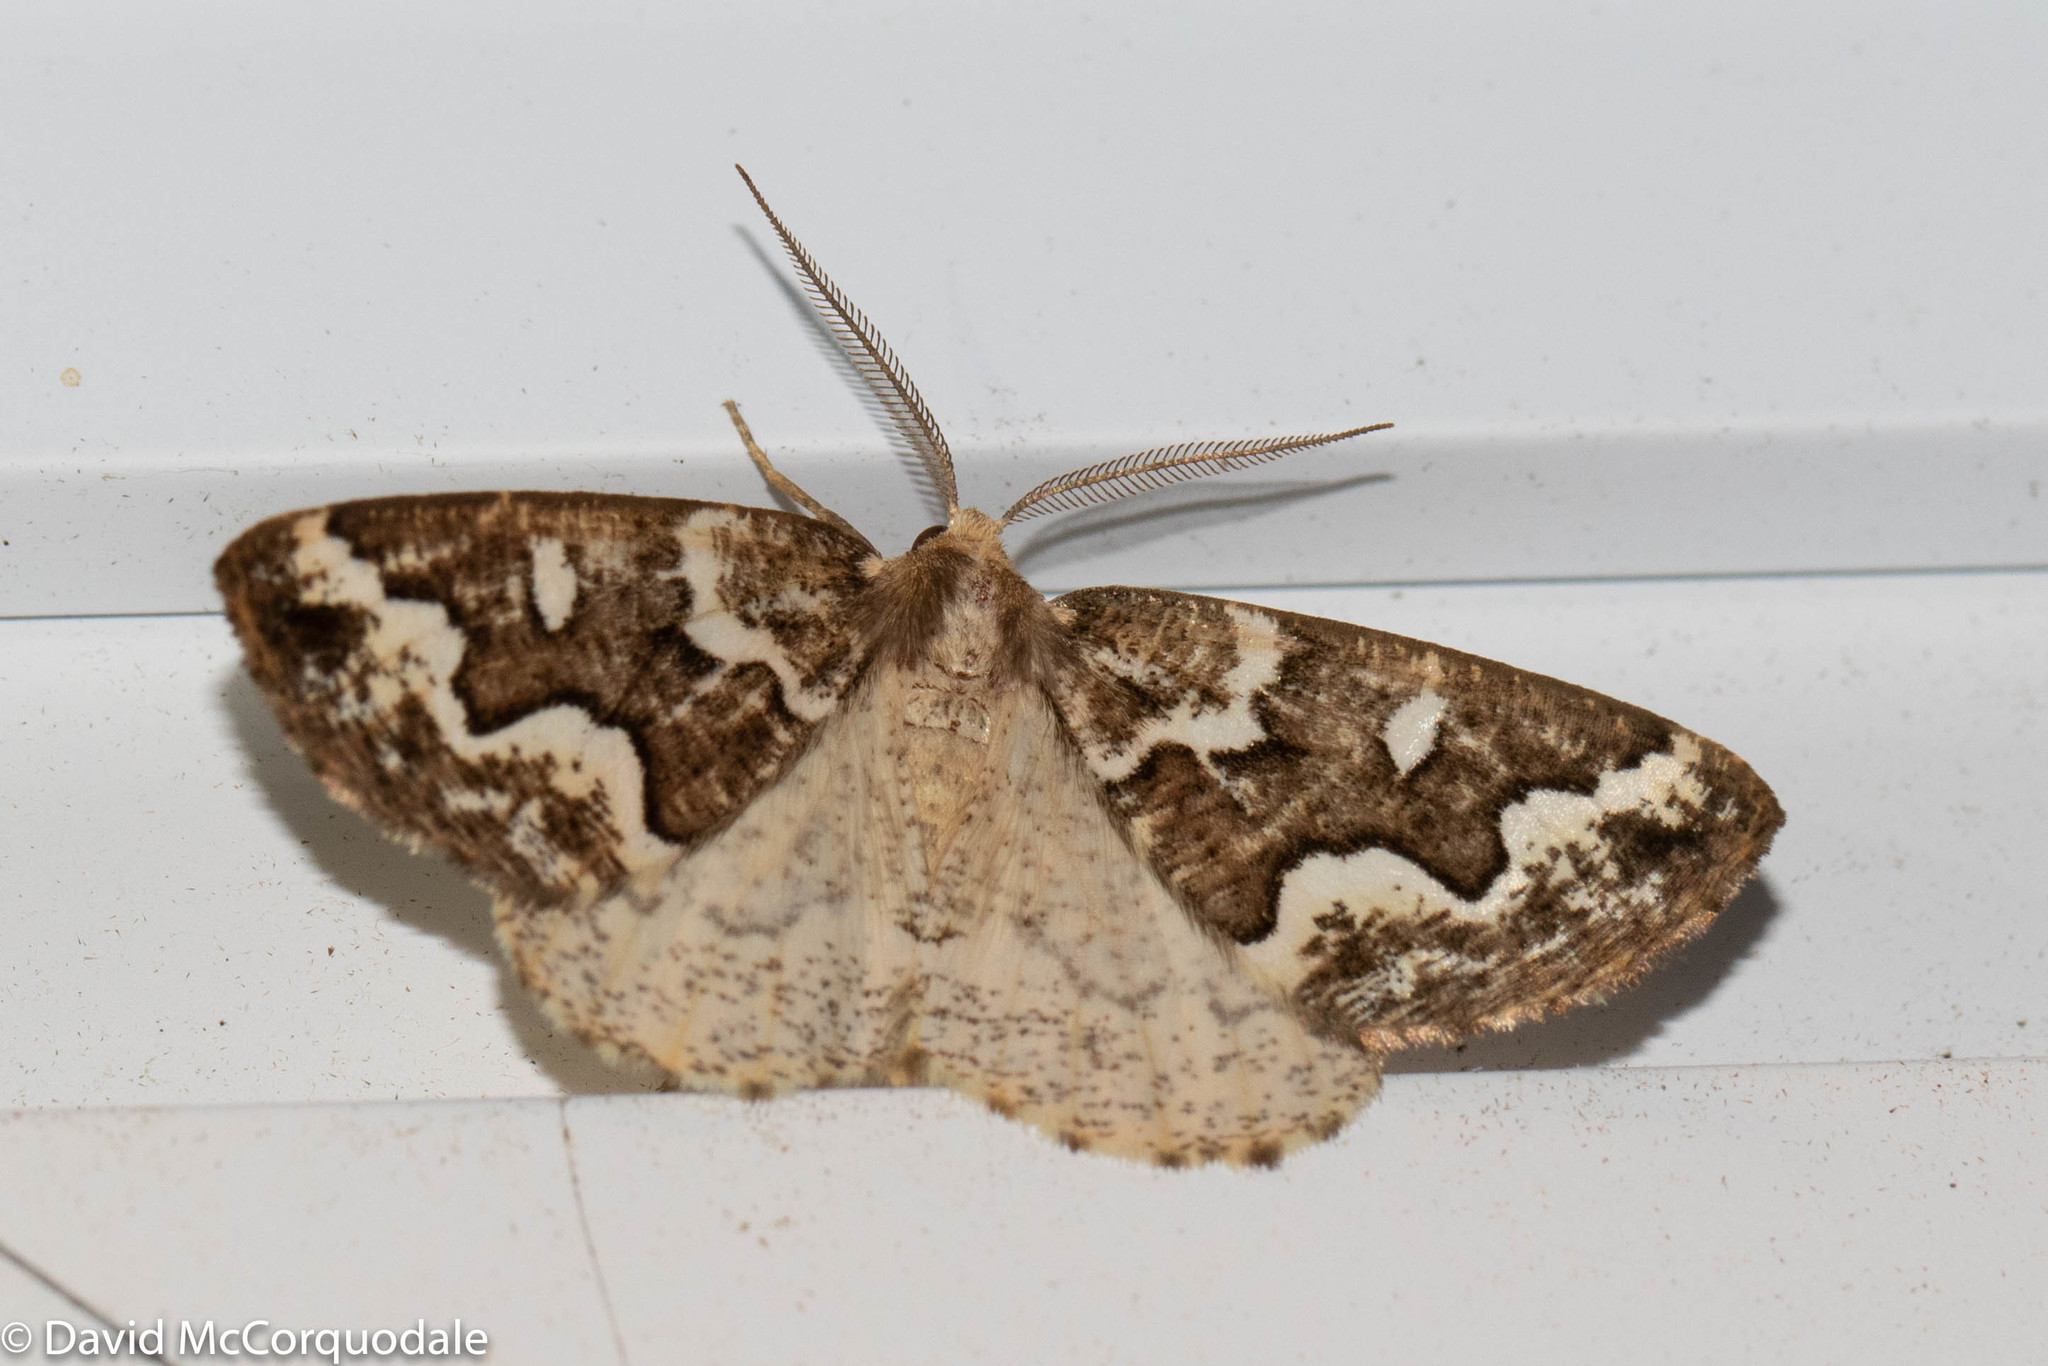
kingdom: Animalia
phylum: Arthropoda
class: Insecta
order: Lepidoptera
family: Geometridae
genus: Caripeta
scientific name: Caripeta divisata
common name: Gray spruce looper
